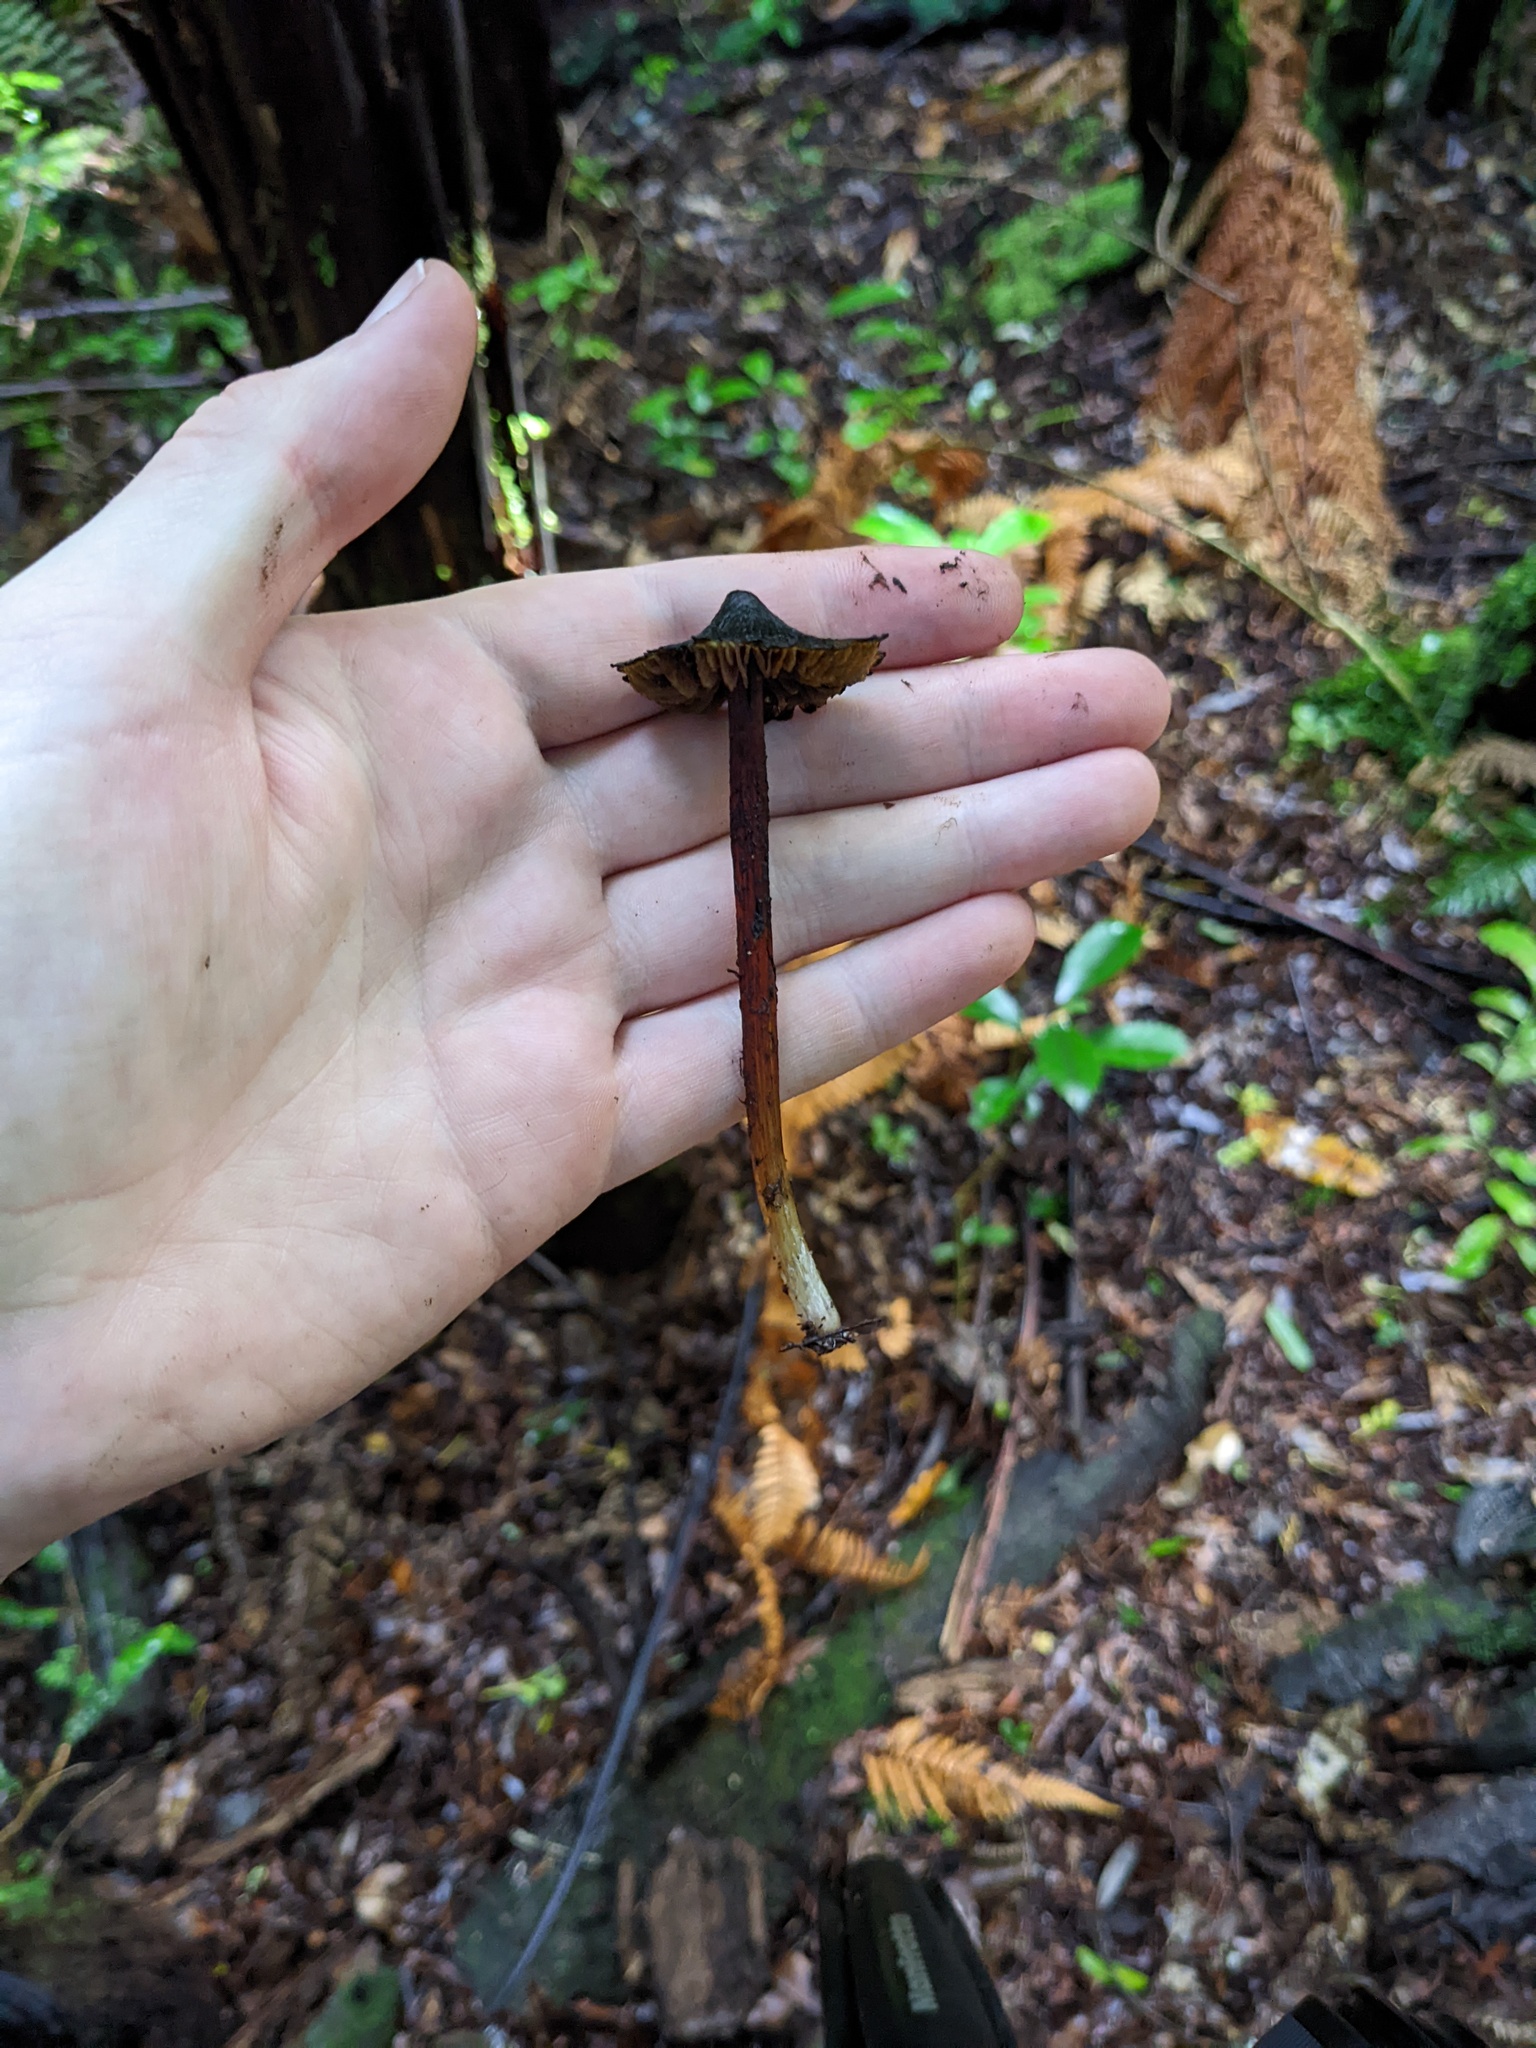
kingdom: Fungi
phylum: Basidiomycota
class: Agaricomycetes
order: Agaricales
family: Hygrophoraceae
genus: Hygrocybe
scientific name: Hygrocybe astatogala
